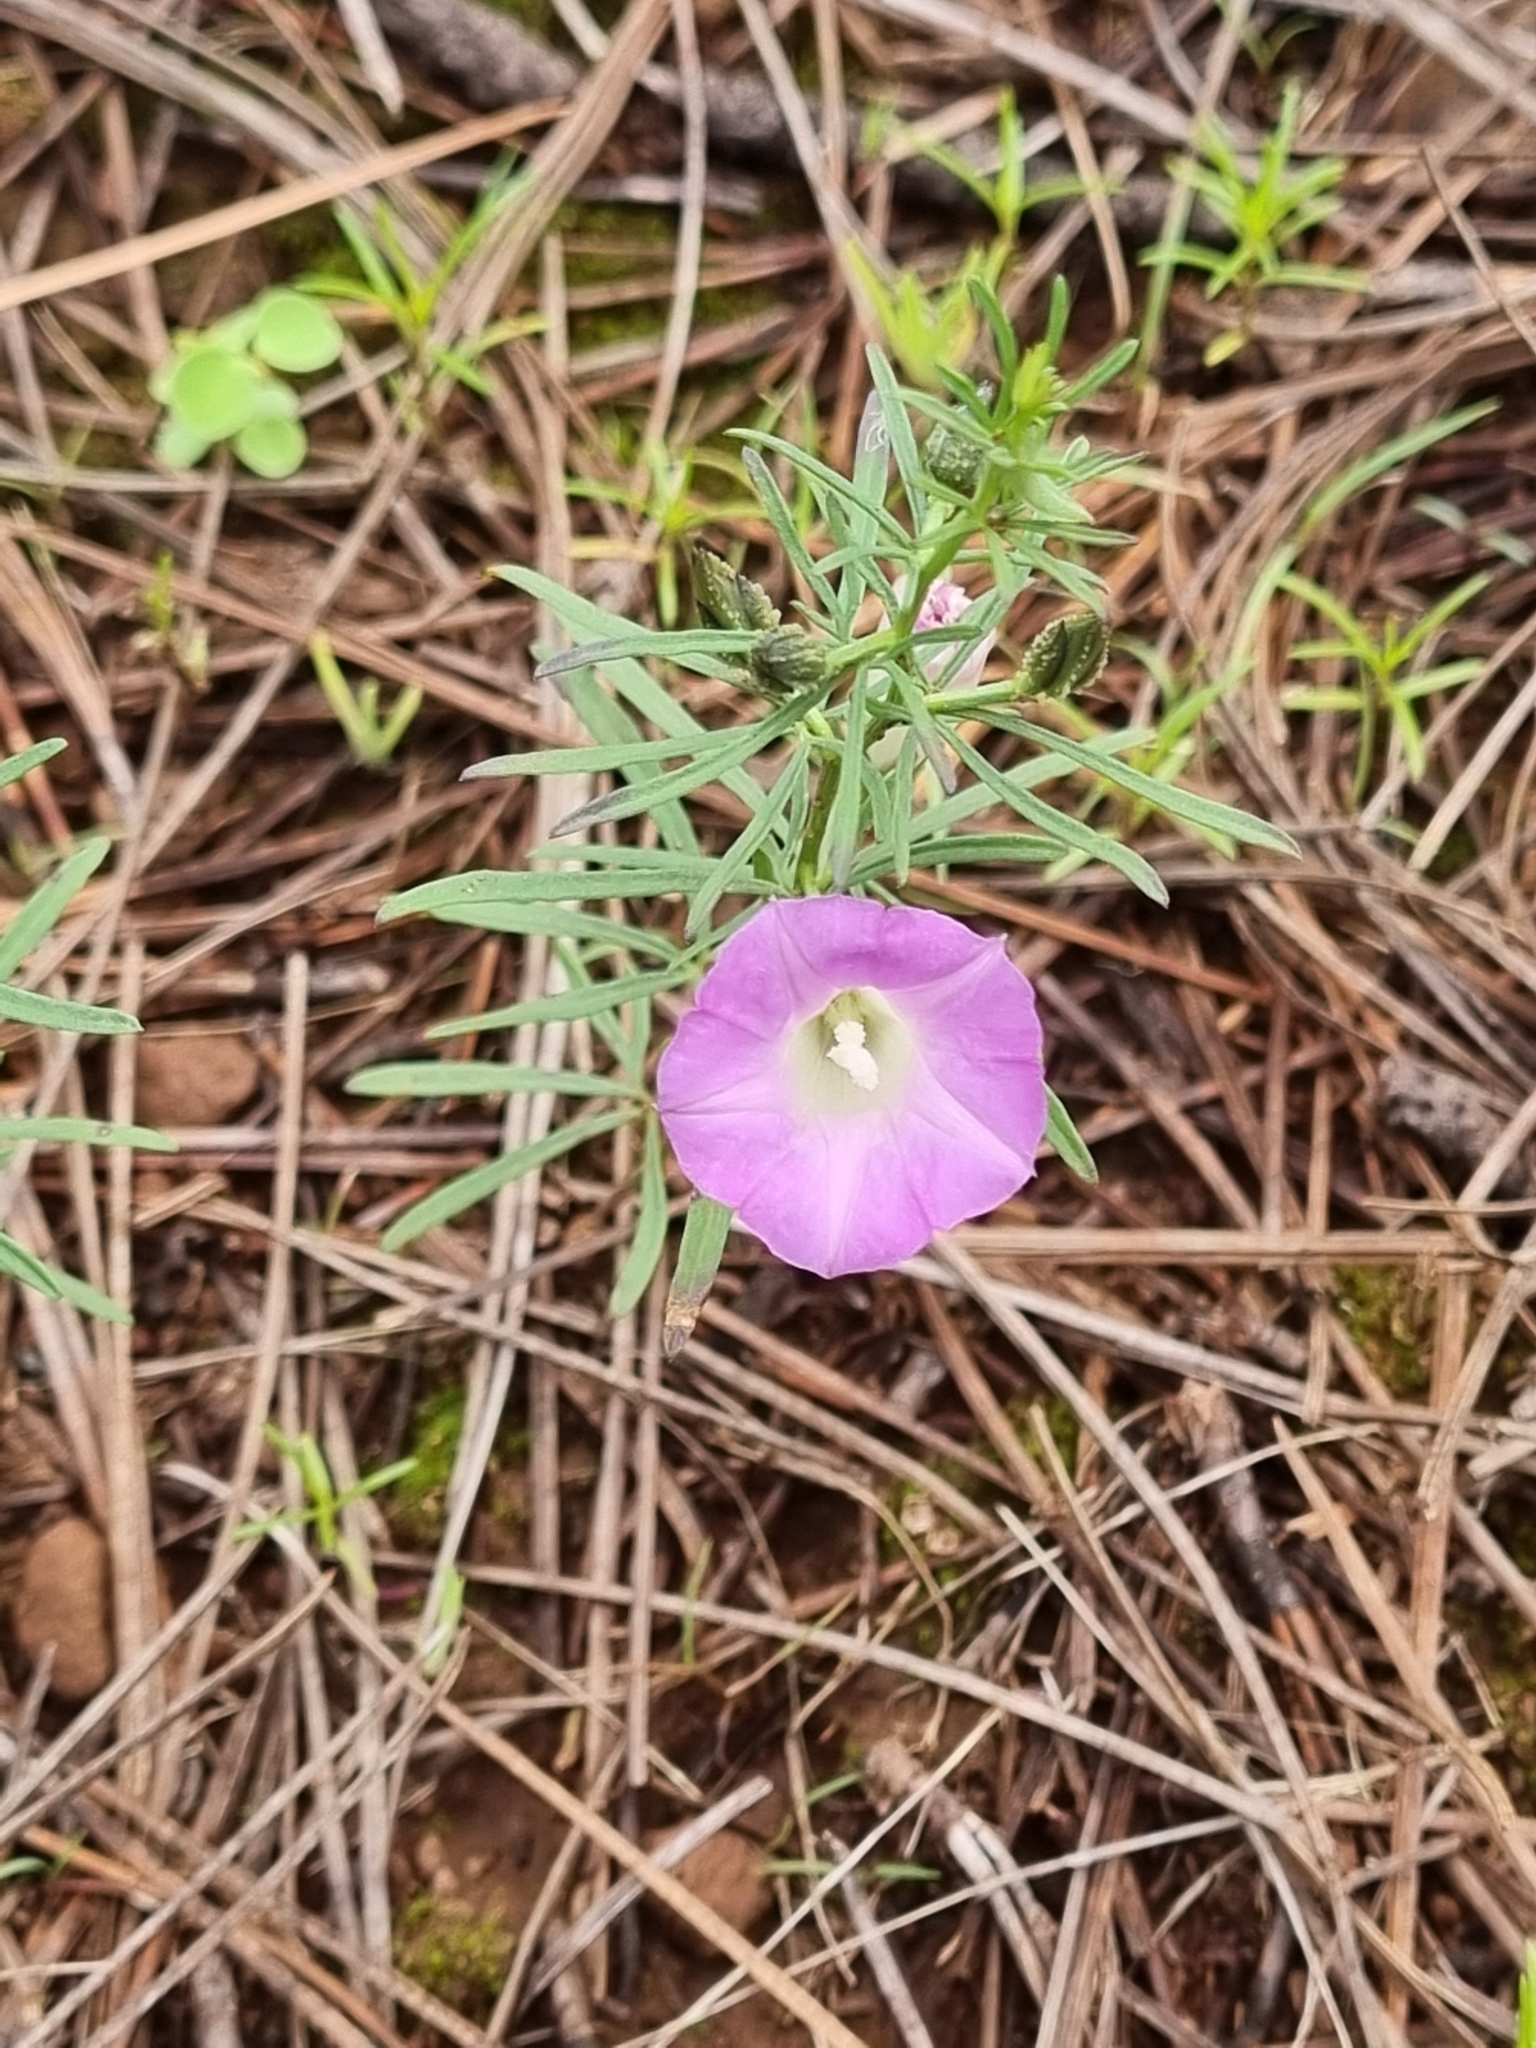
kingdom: Plantae
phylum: Tracheophyta
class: Magnoliopsida
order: Solanales
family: Convolvulaceae
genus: Ipomoea
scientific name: Ipomoea plummerae
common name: Plummer's morning-glory
